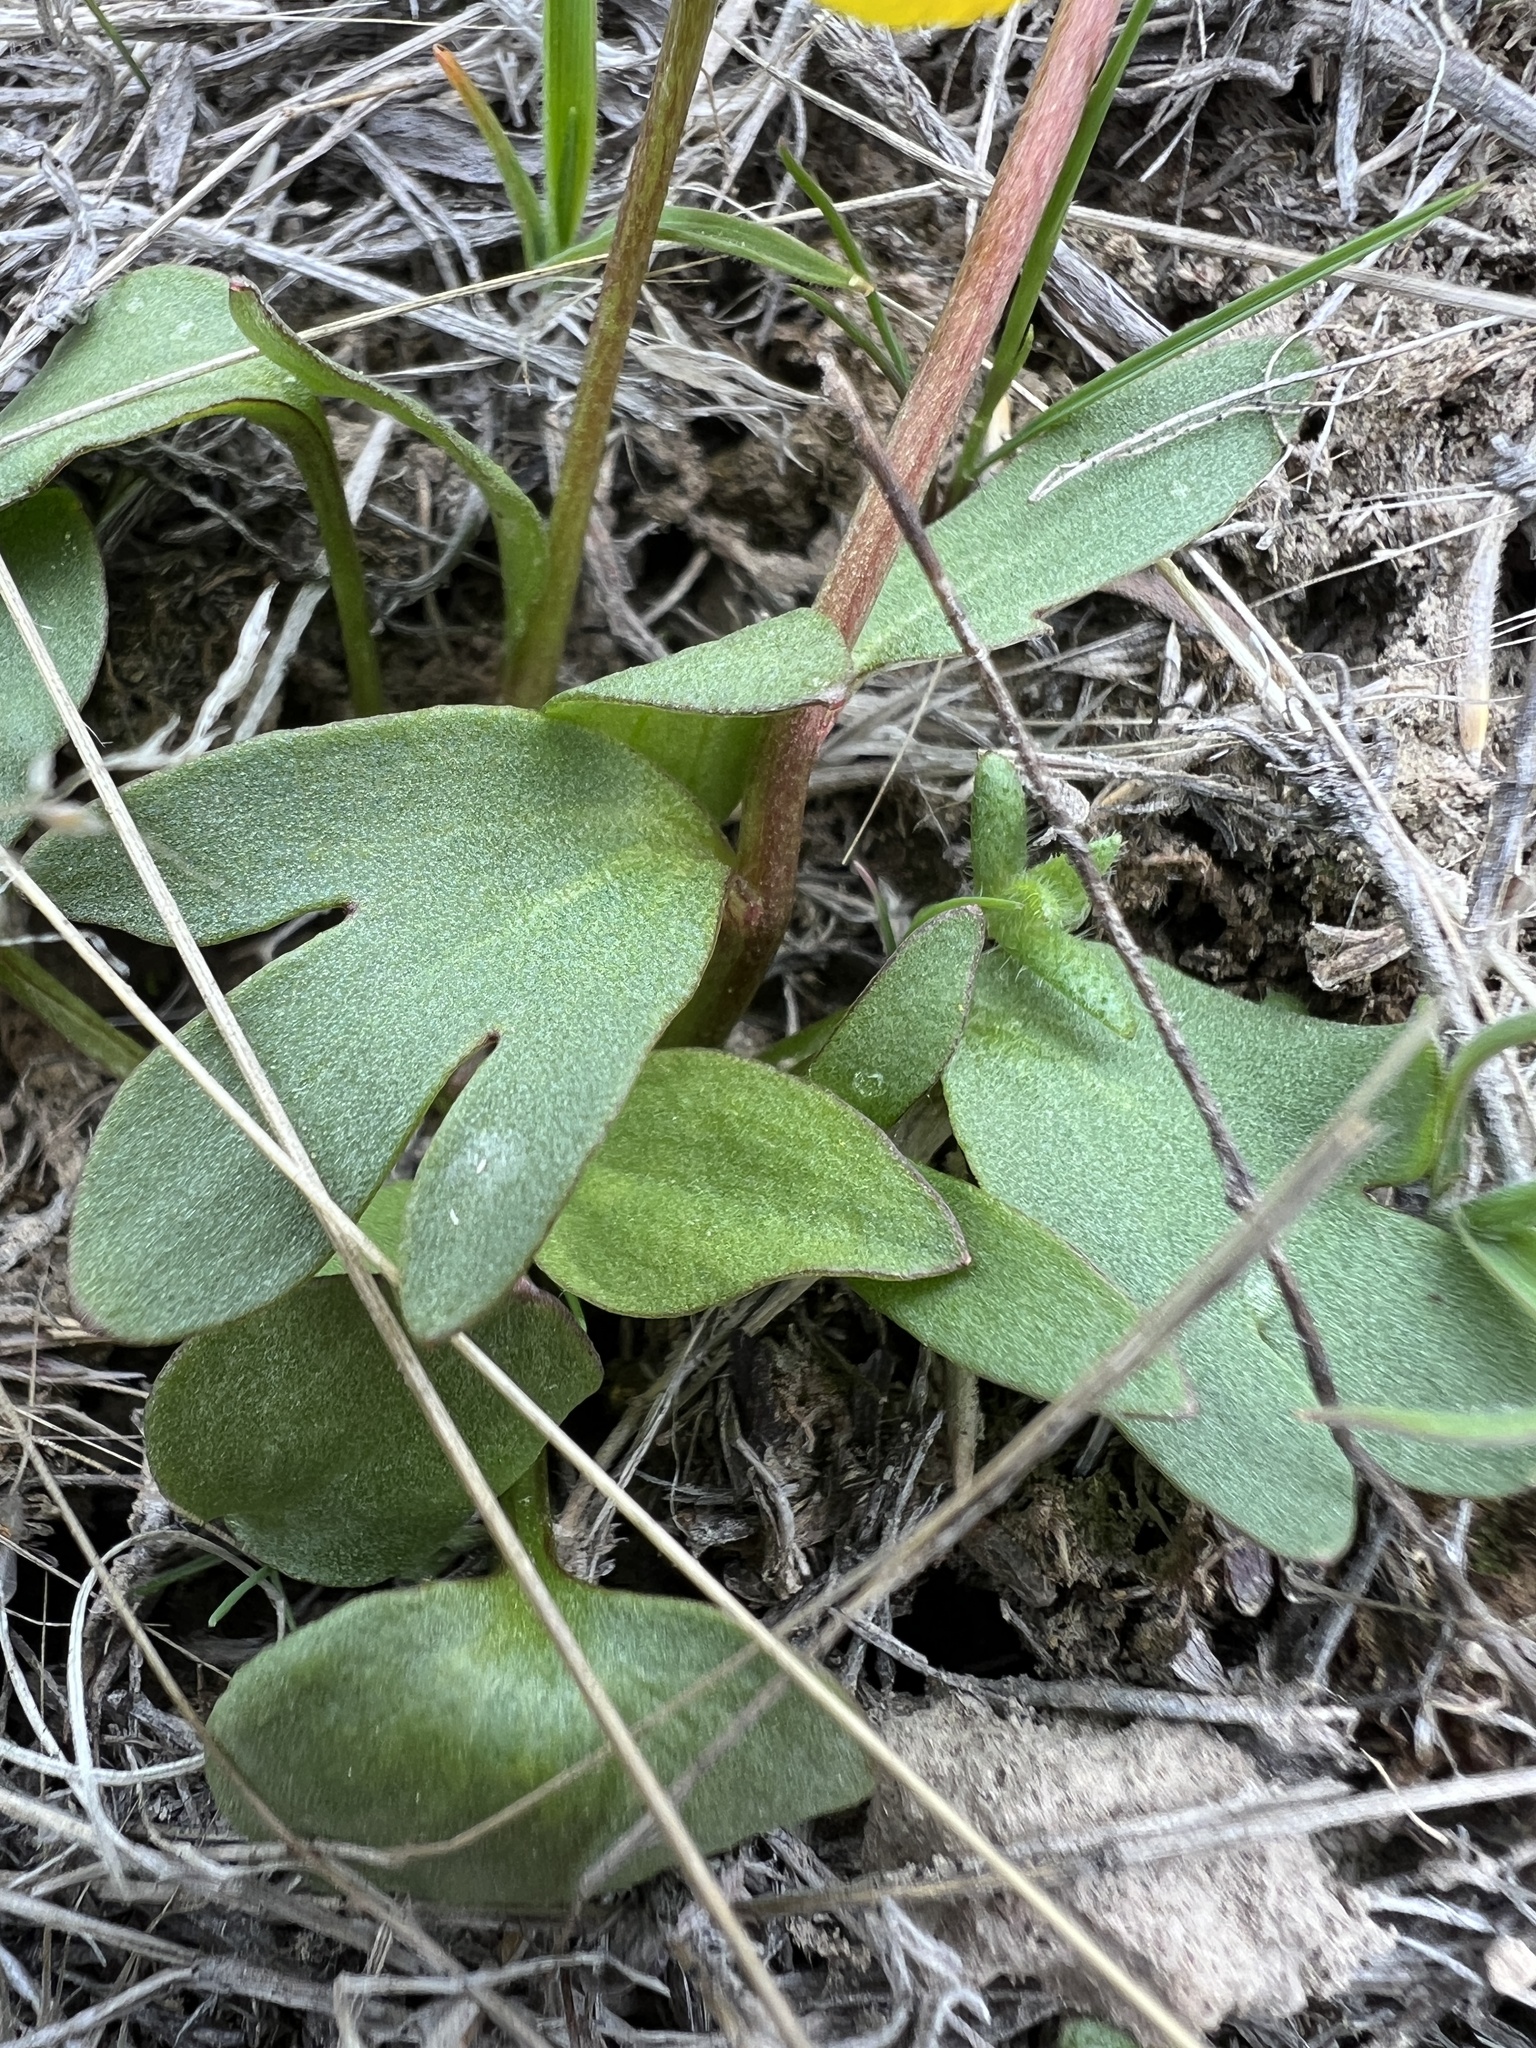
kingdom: Plantae
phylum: Tracheophyta
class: Magnoliopsida
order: Ranunculales
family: Ranunculaceae
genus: Ranunculus
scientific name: Ranunculus glaberrimus
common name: Sagebrush buttercup
